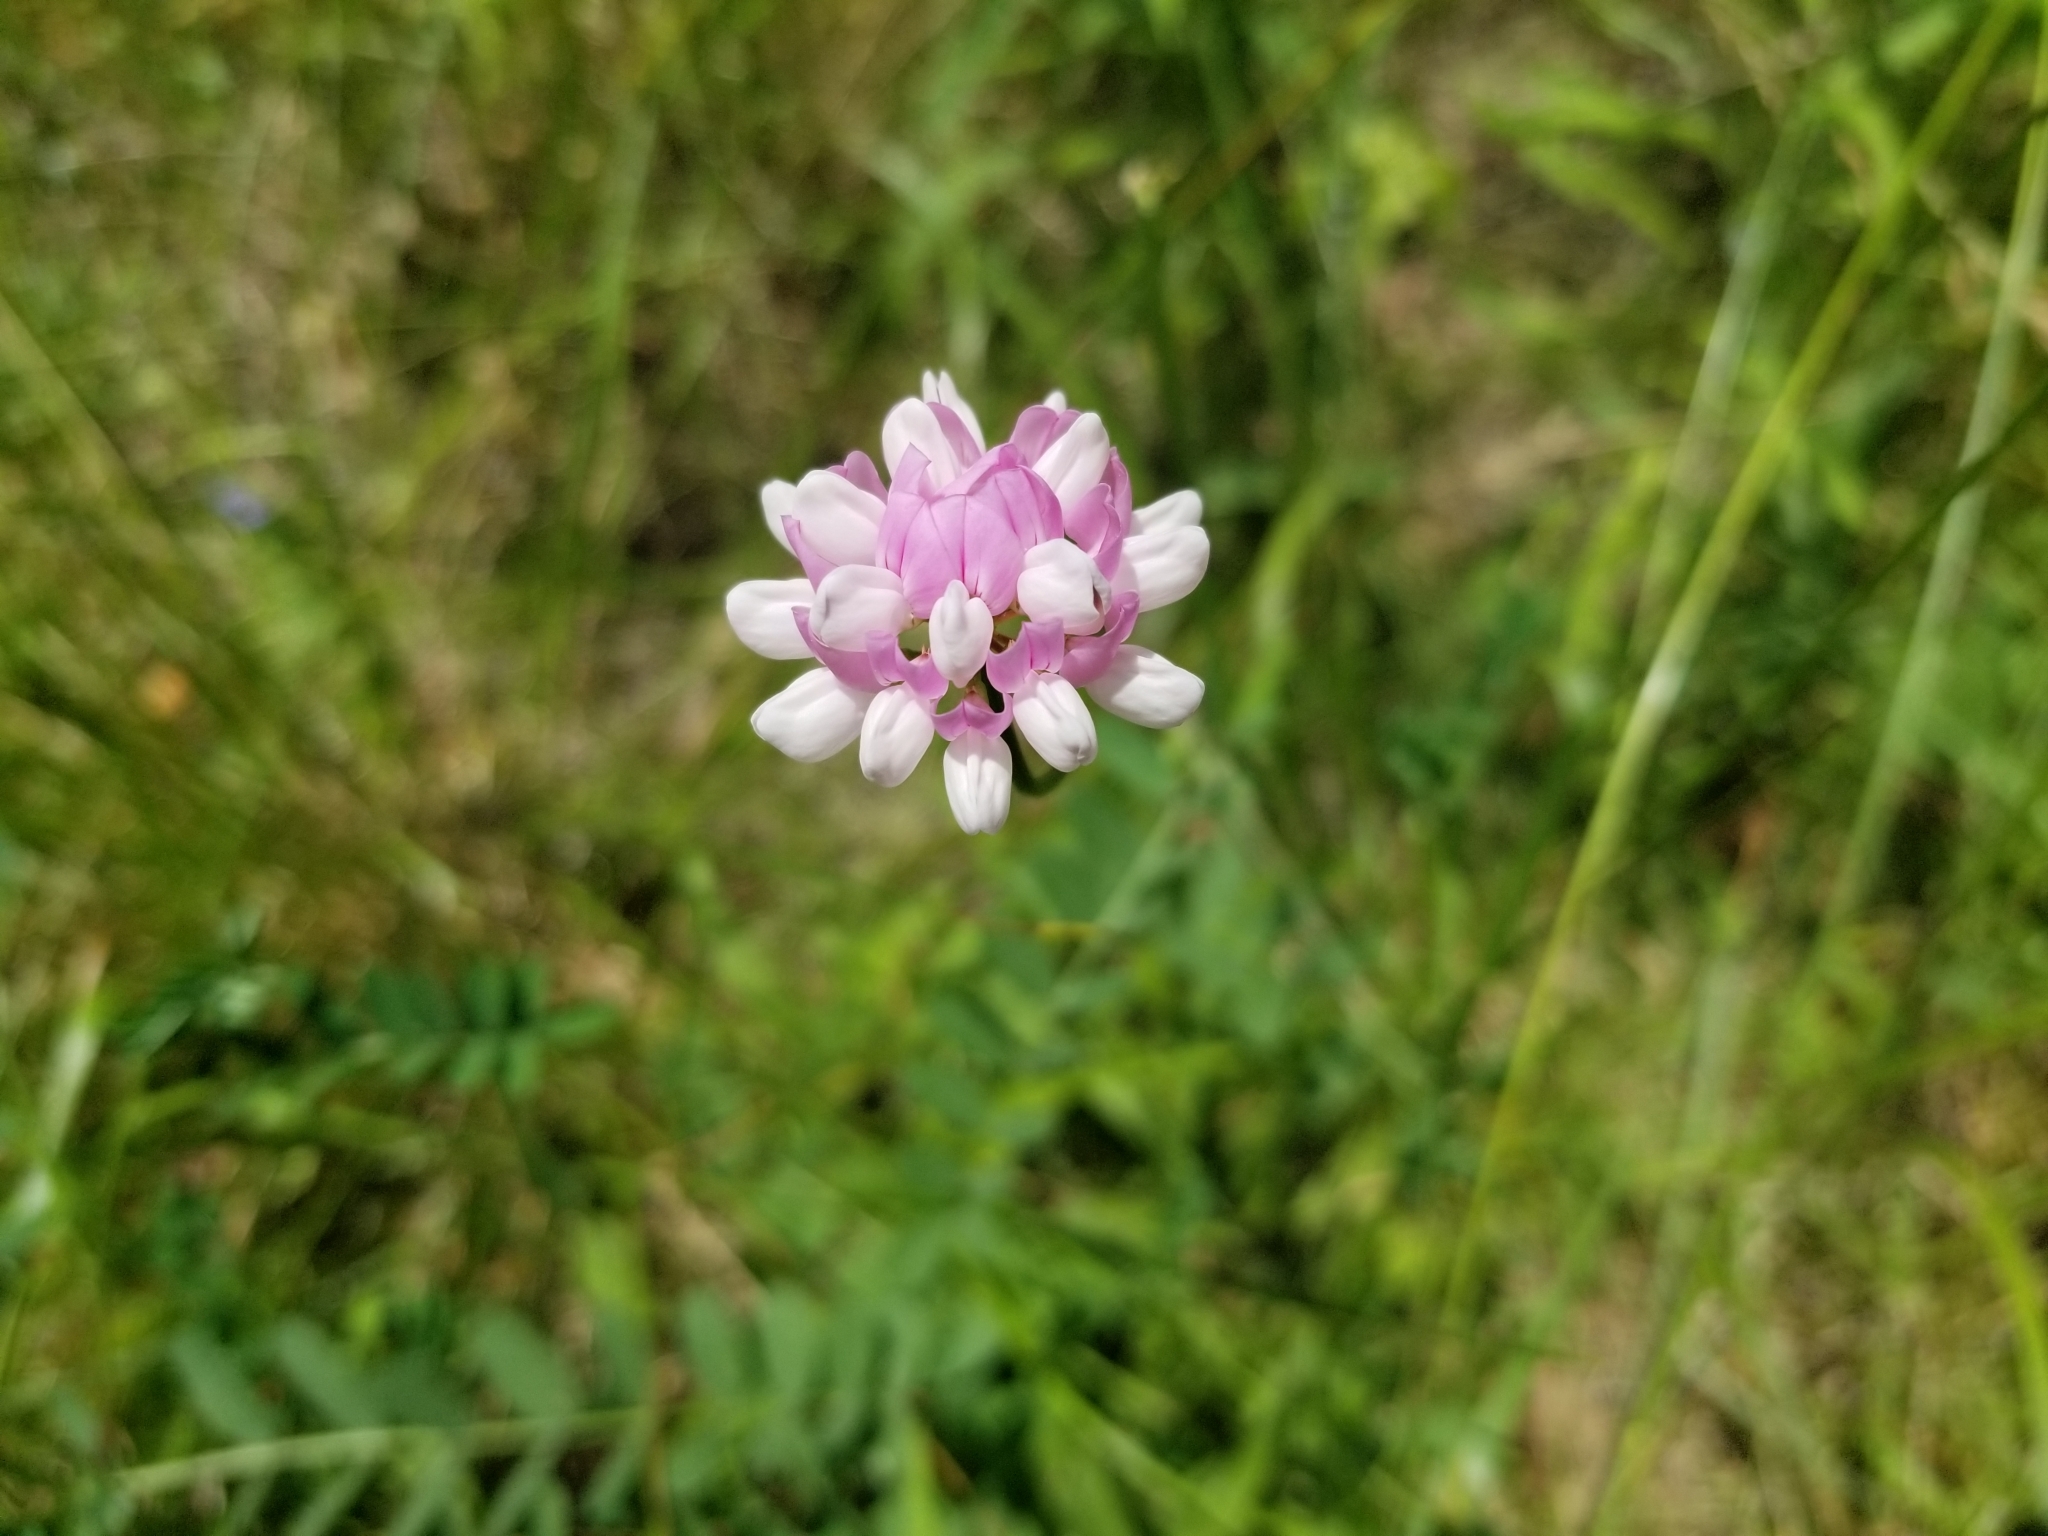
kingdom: Plantae
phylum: Tracheophyta
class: Magnoliopsida
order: Fabales
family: Fabaceae
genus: Coronilla
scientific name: Coronilla varia
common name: Crownvetch
